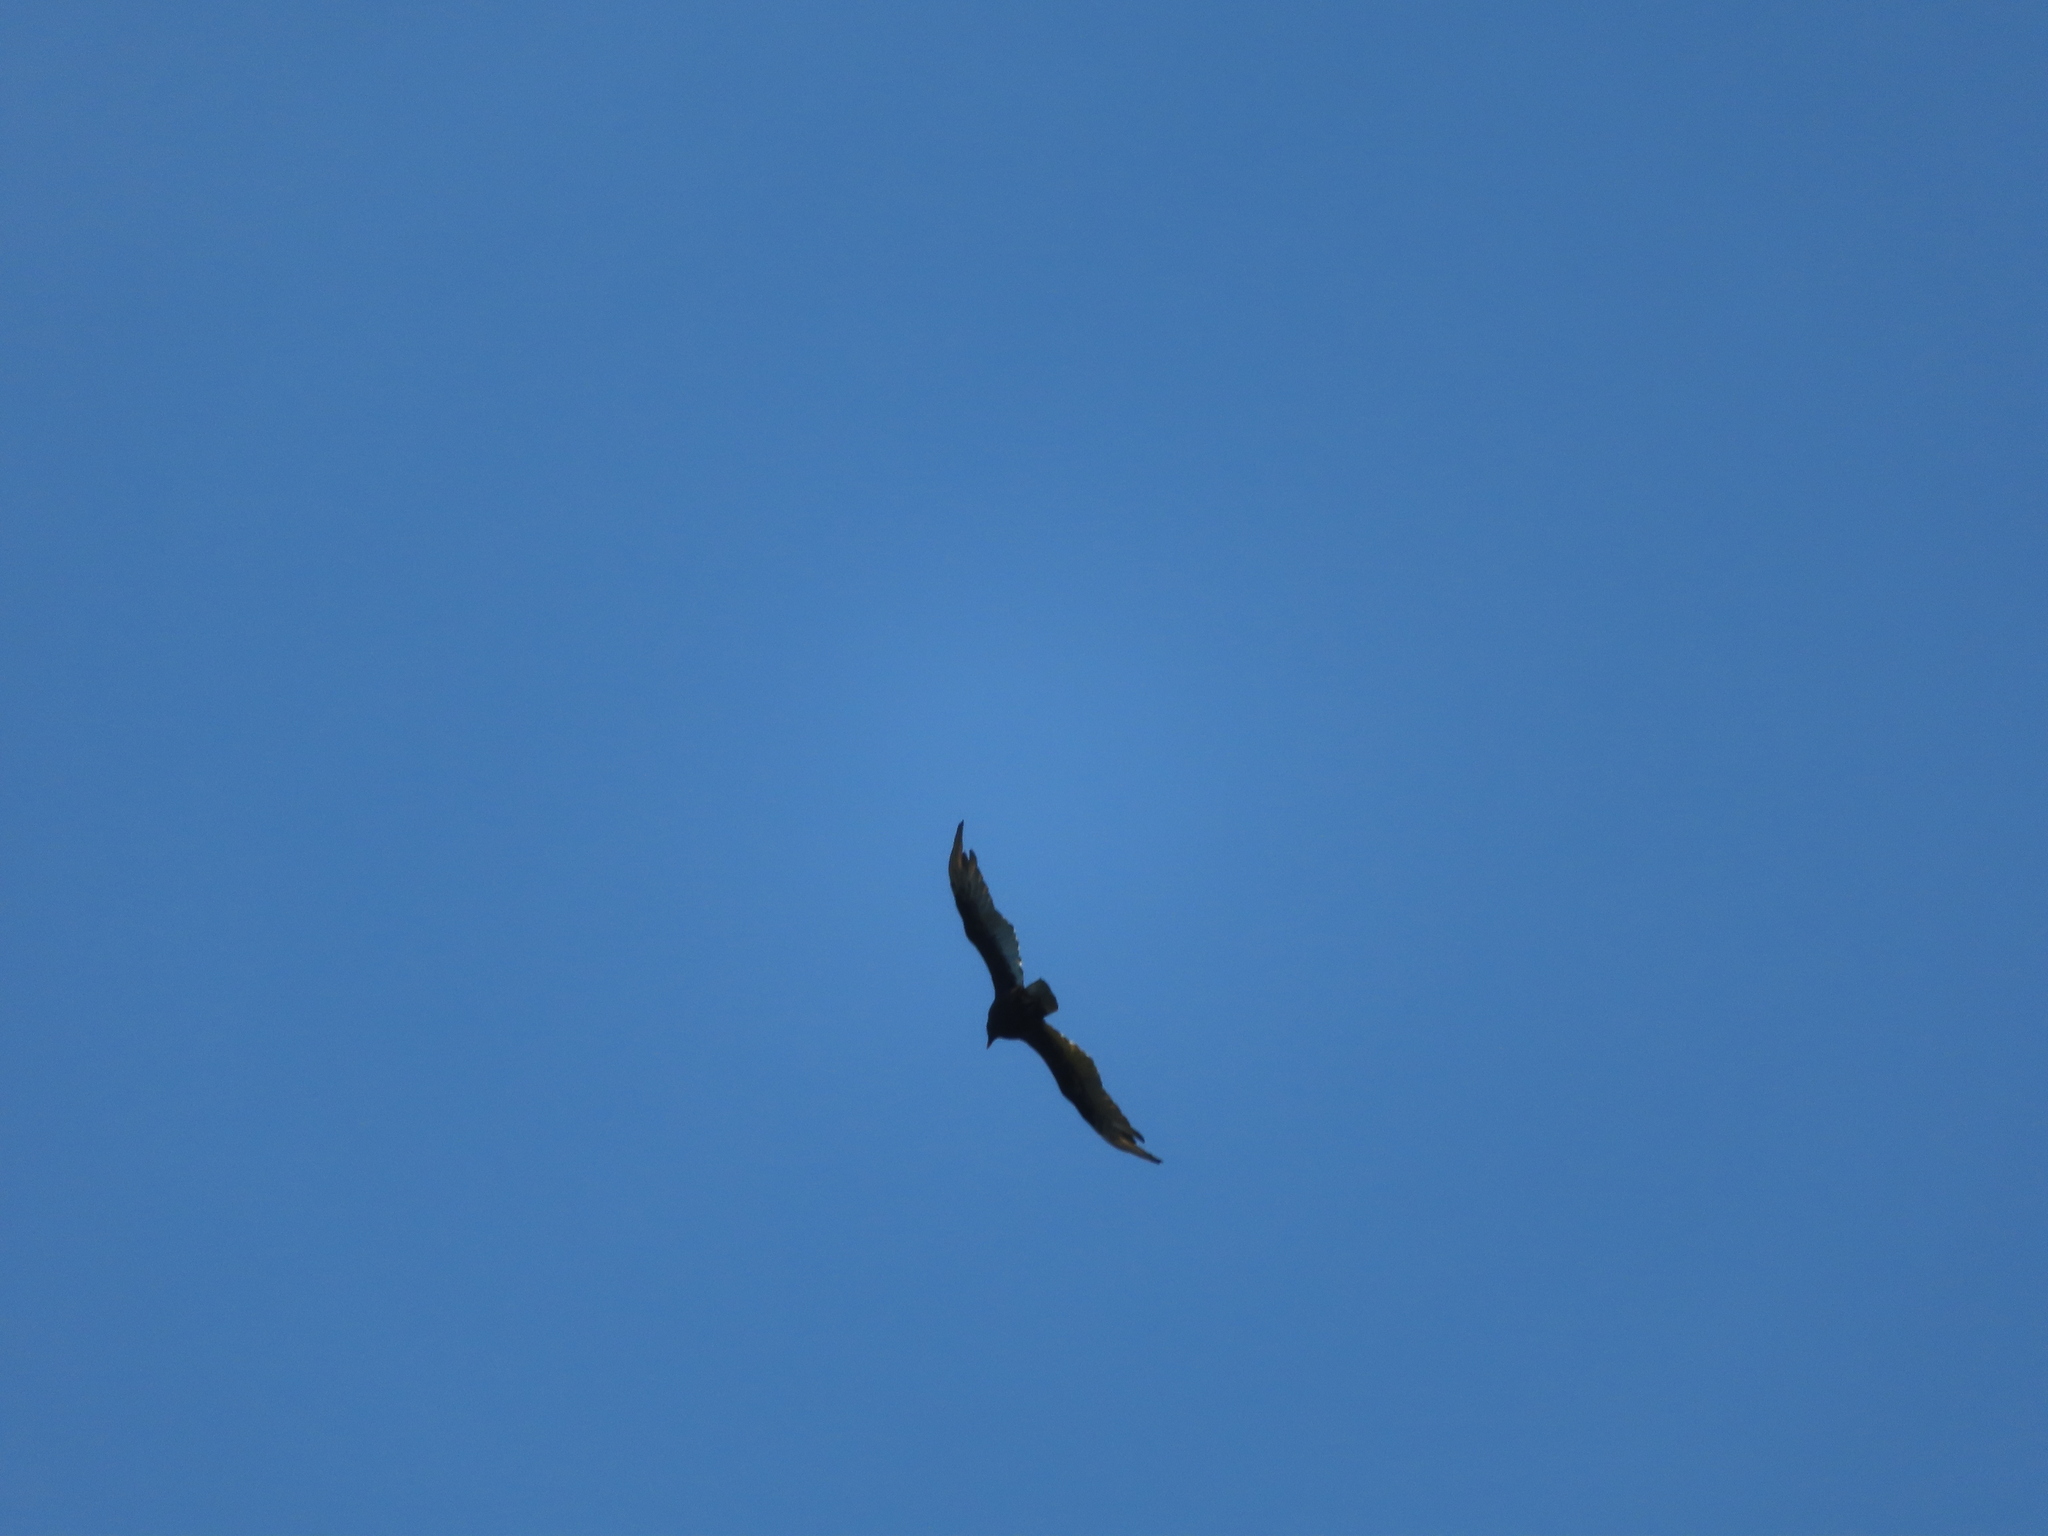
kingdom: Animalia
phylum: Chordata
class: Aves
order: Accipitriformes
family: Cathartidae
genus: Cathartes
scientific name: Cathartes aura
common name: Turkey vulture
